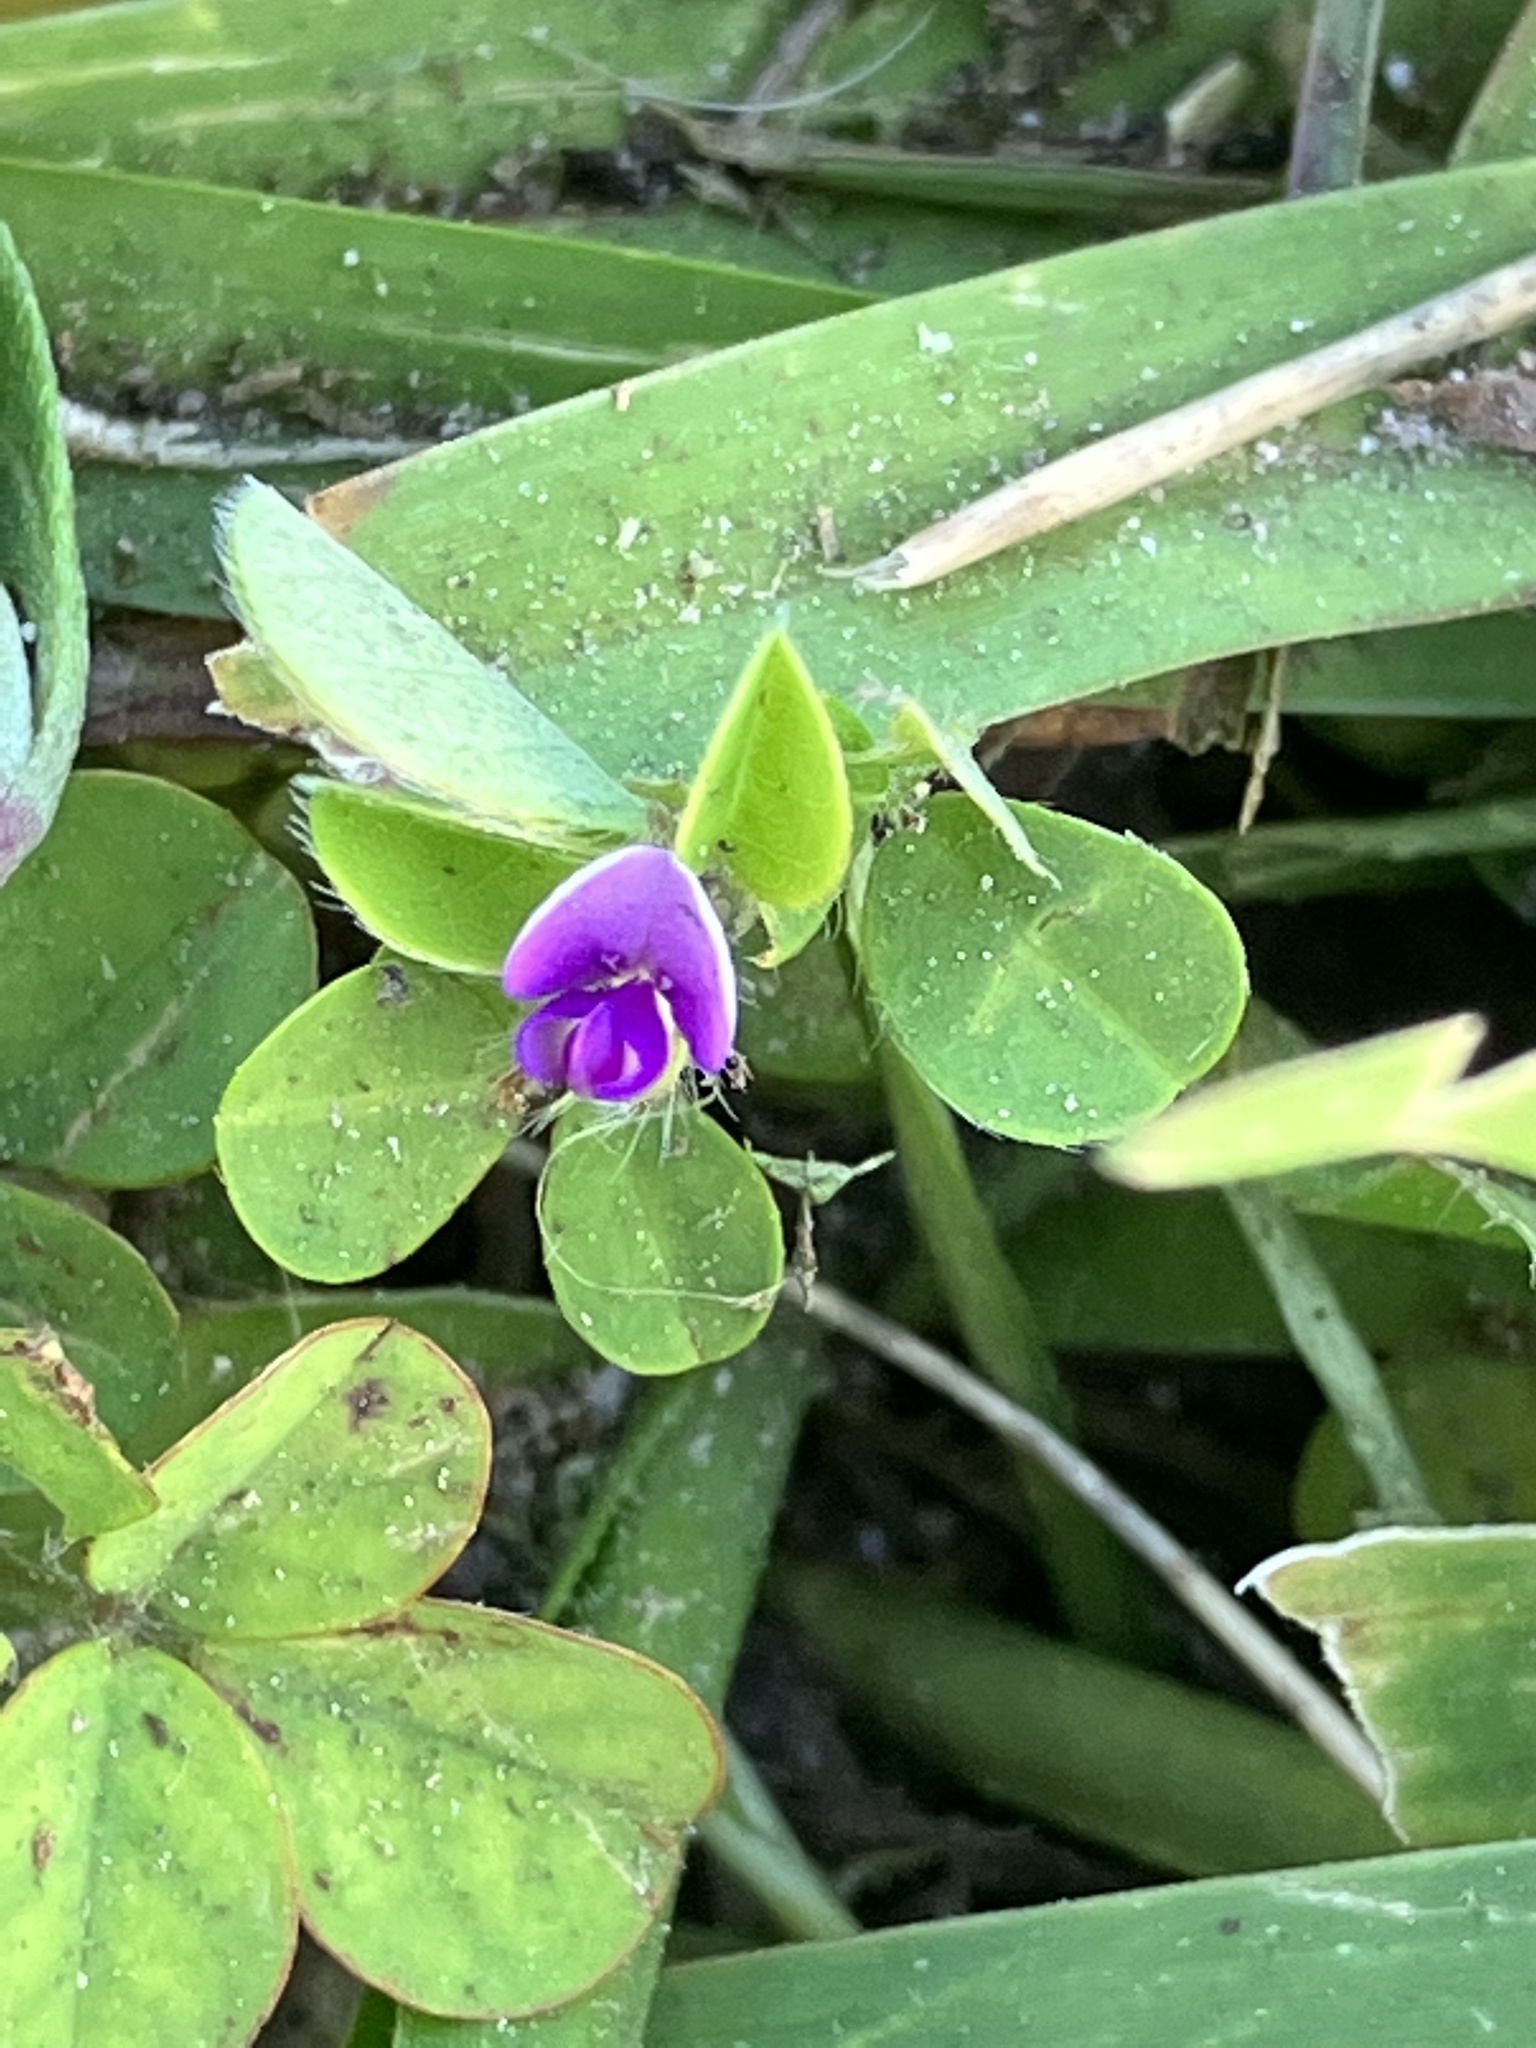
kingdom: Plantae
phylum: Tracheophyta
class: Magnoliopsida
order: Fabales
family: Fabaceae
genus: Grona
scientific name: Grona triflora
